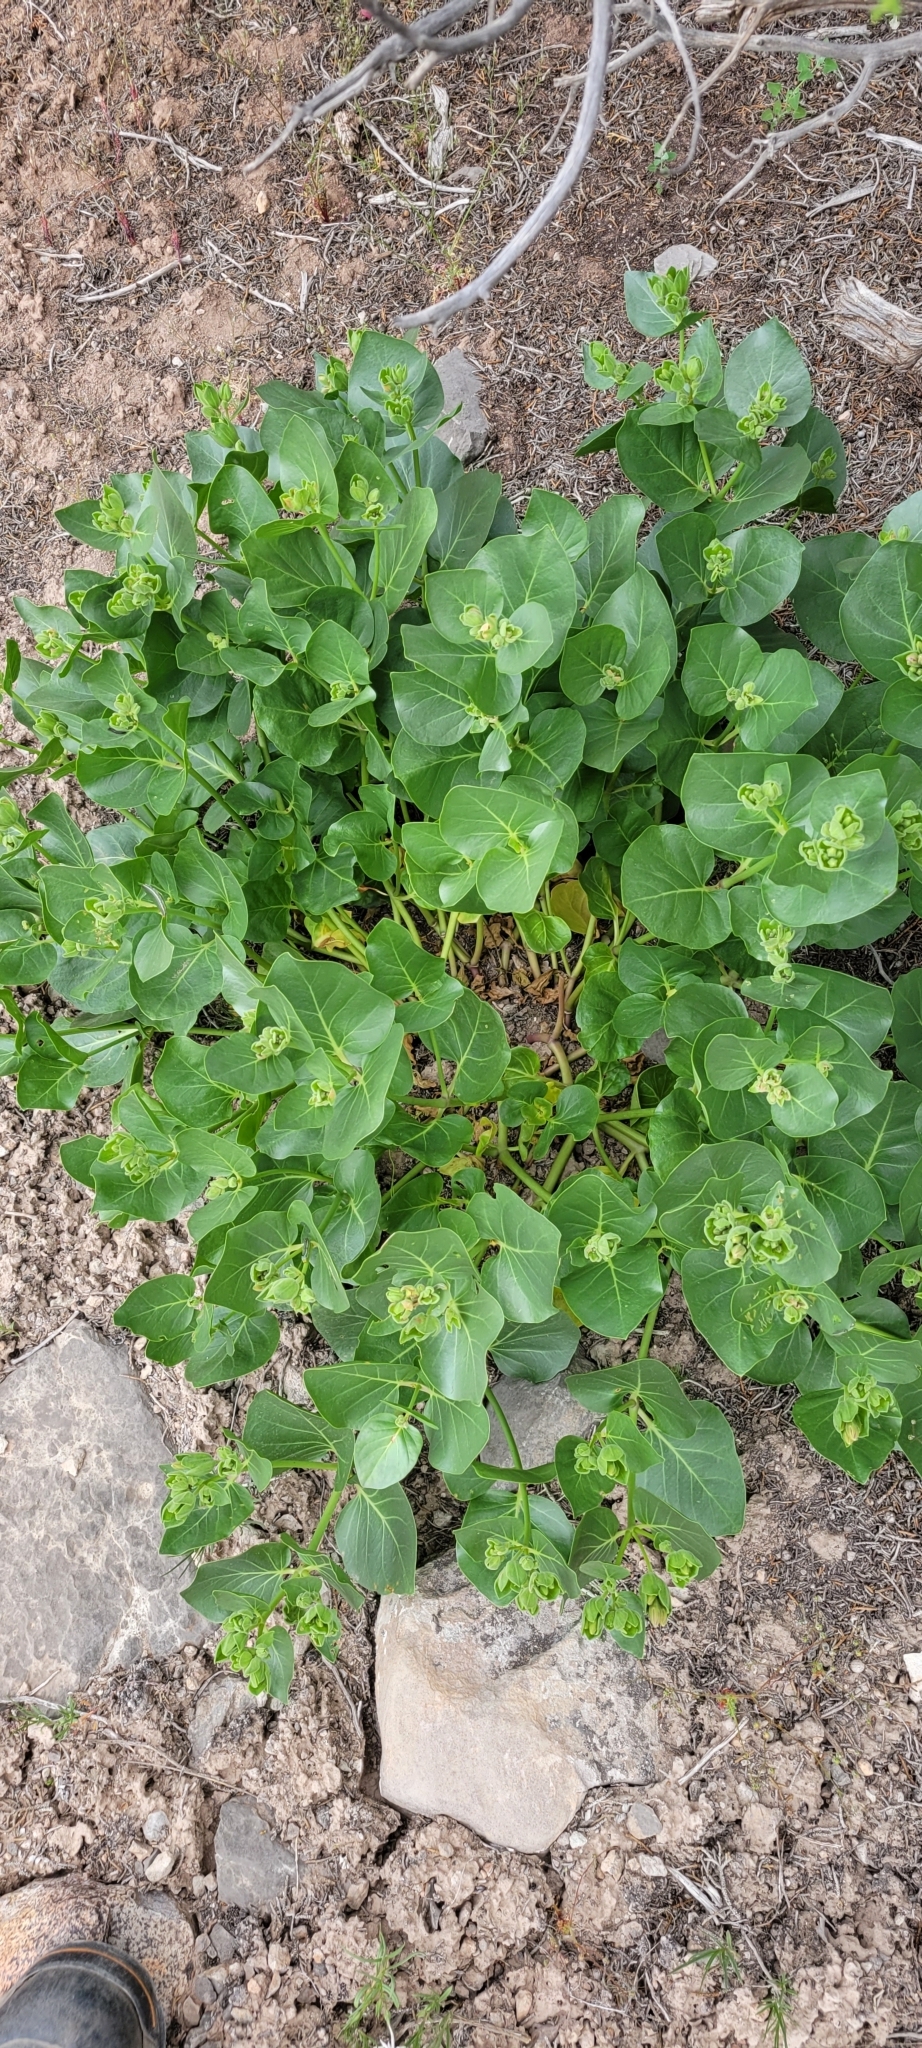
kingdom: Plantae
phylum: Tracheophyta
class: Magnoliopsida
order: Caryophyllales
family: Nyctaginaceae
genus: Mirabilis
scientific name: Mirabilis multiflora
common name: Froebel's four-o'clock
